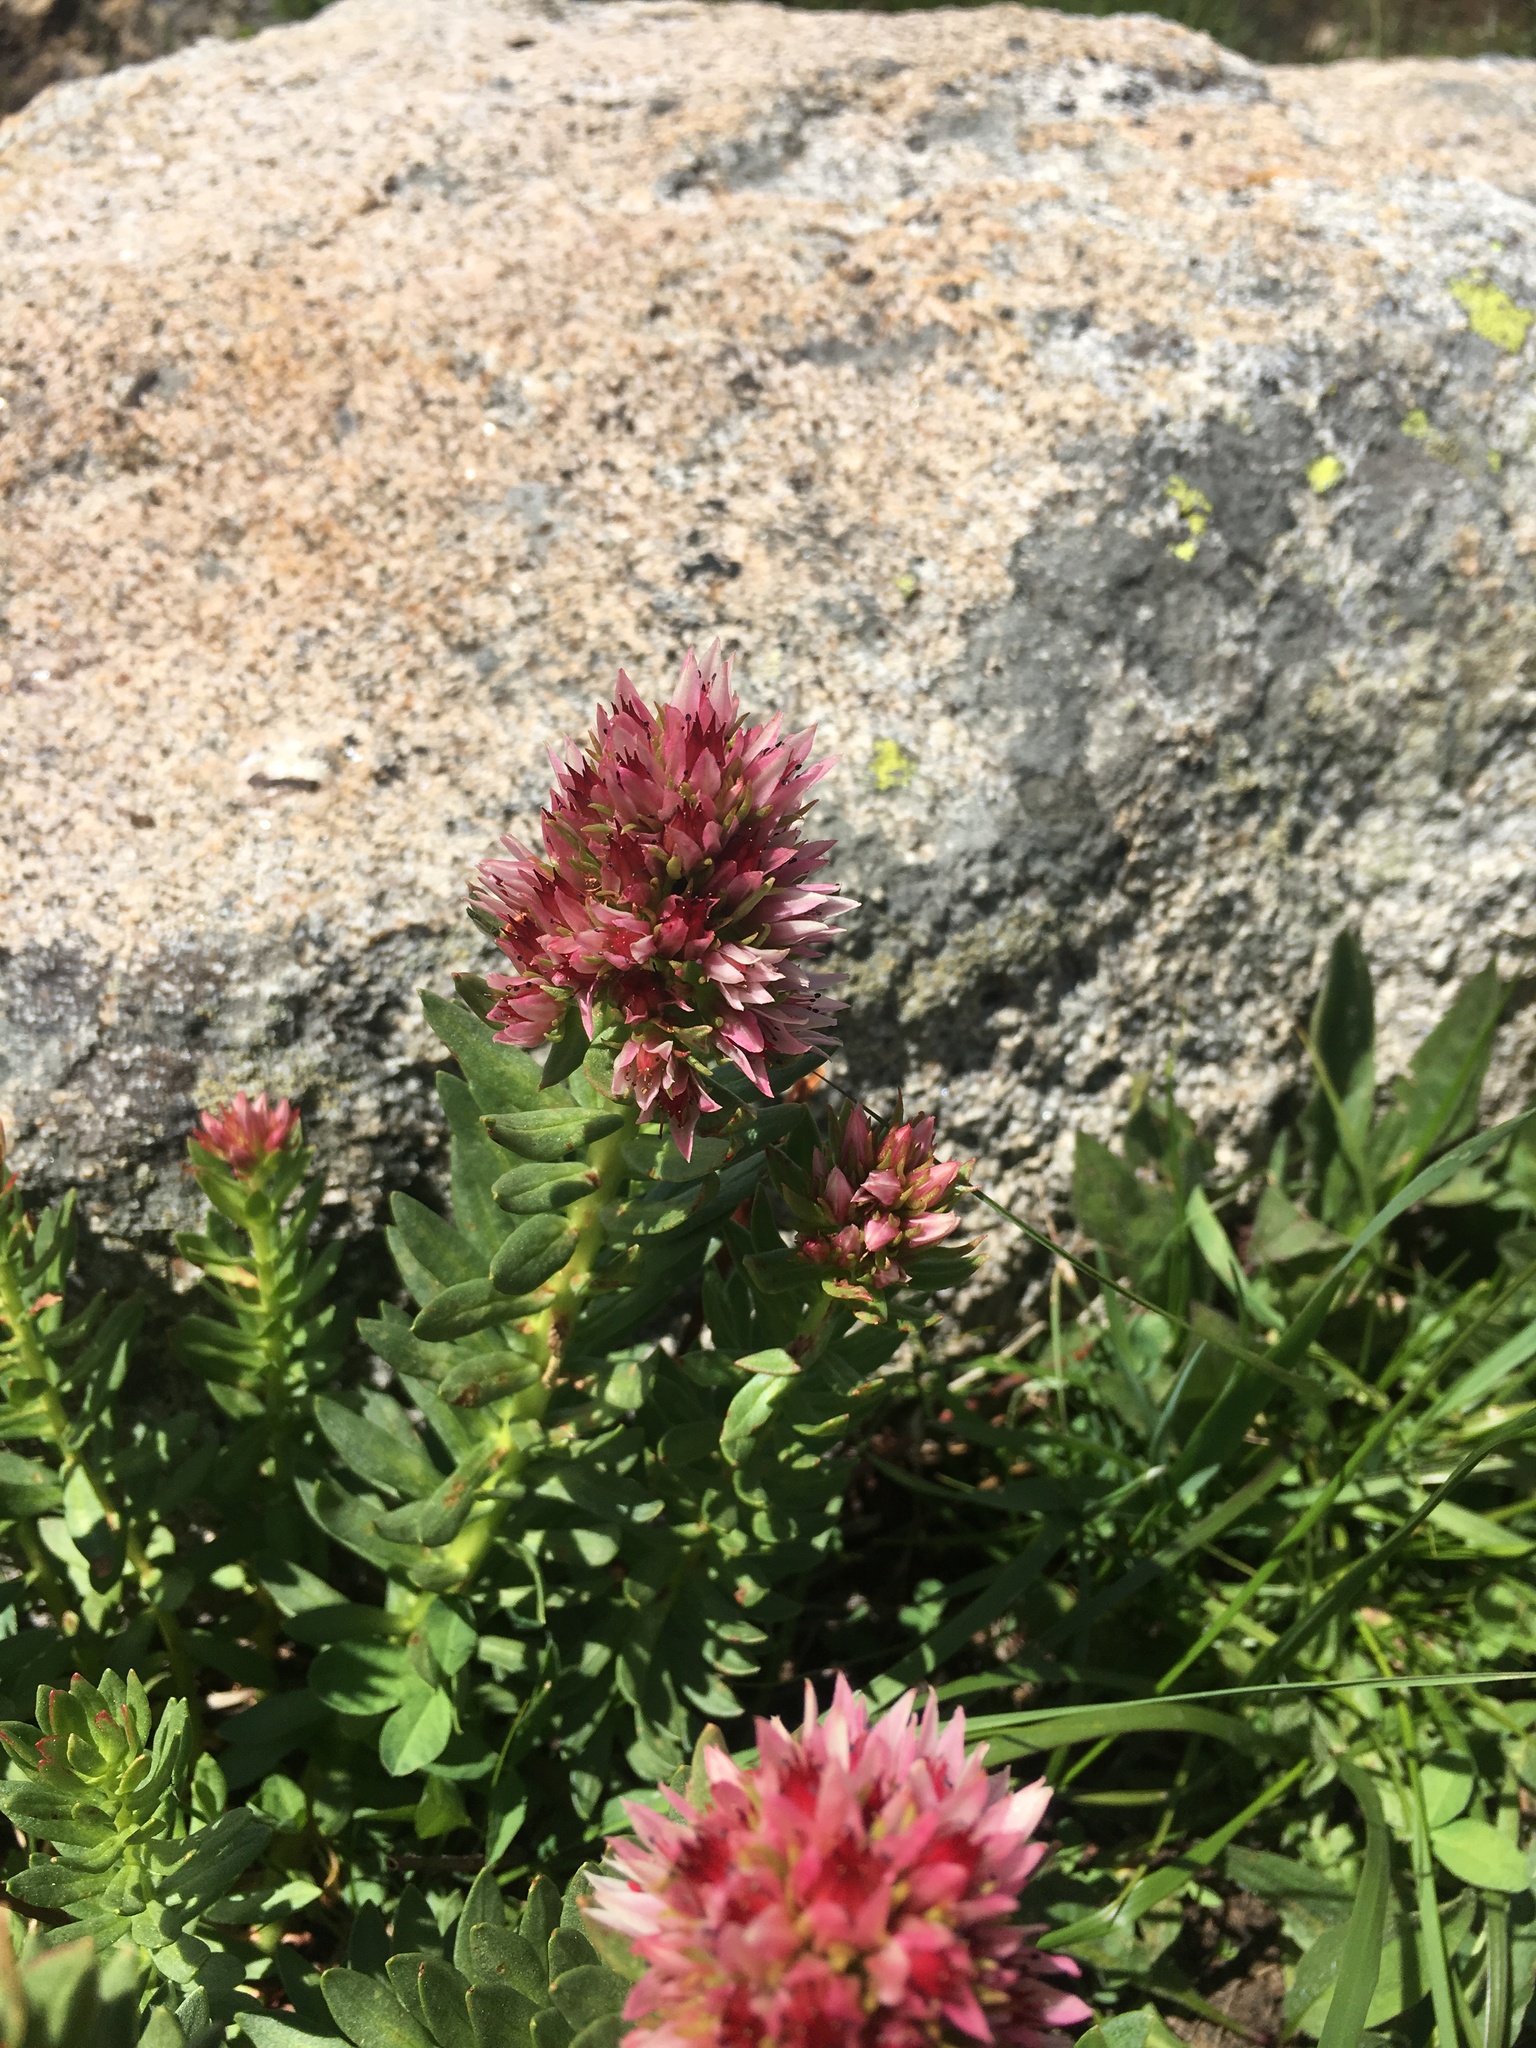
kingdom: Plantae
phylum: Tracheophyta
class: Magnoliopsida
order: Saxifragales
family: Crassulaceae
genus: Rhodiola
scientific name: Rhodiola rhodantha
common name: Red orpine
